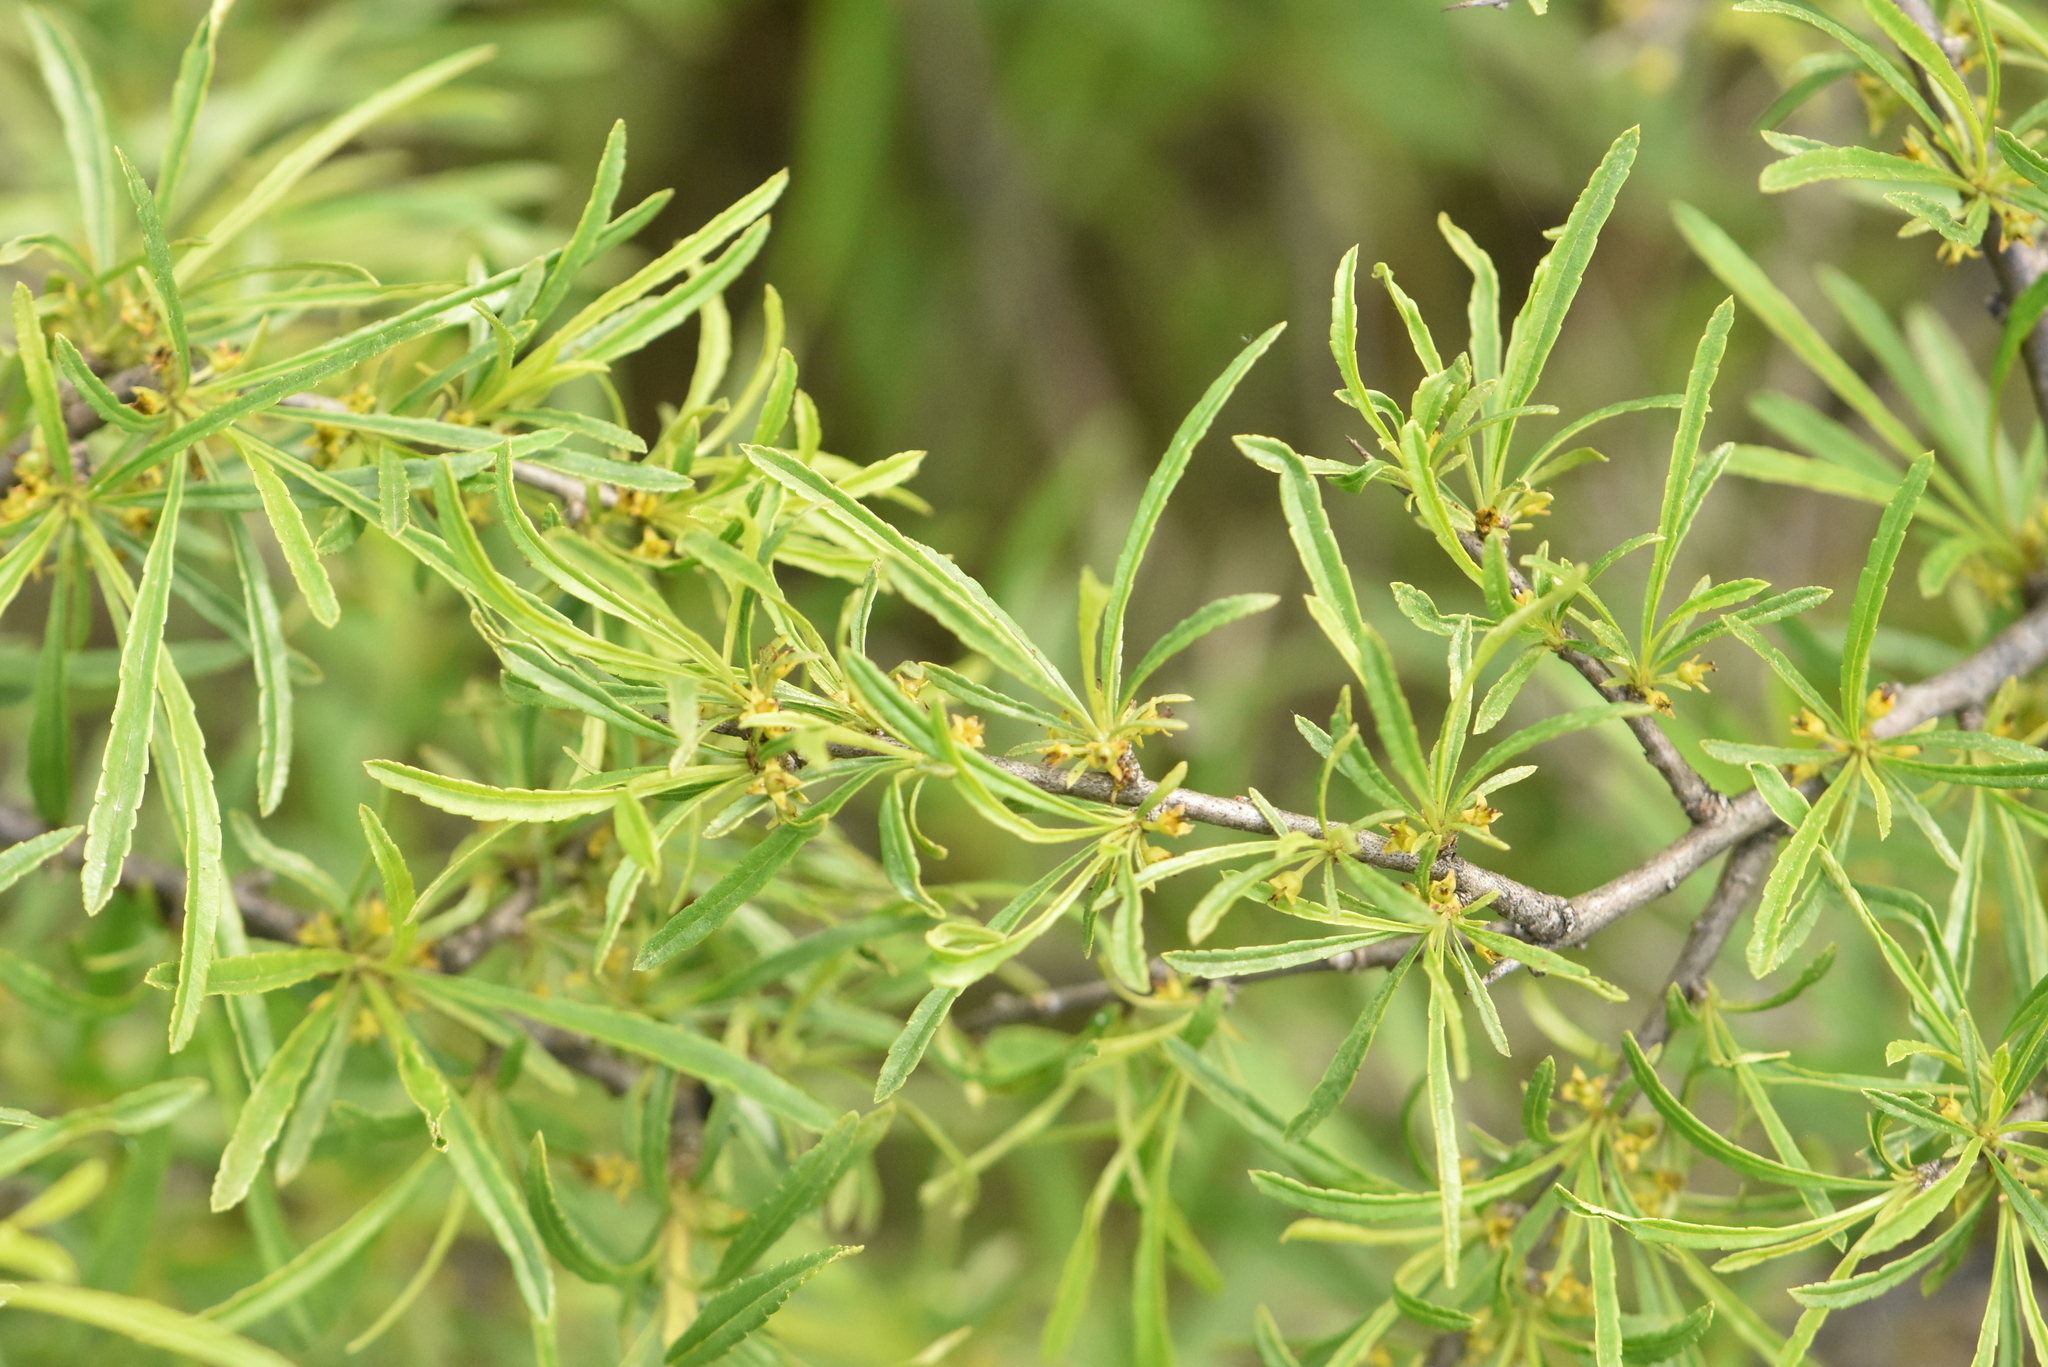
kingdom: Plantae
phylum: Tracheophyta
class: Magnoliopsida
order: Rosales
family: Rhamnaceae
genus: Rhamnus
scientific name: Rhamnus erythroxyloides
